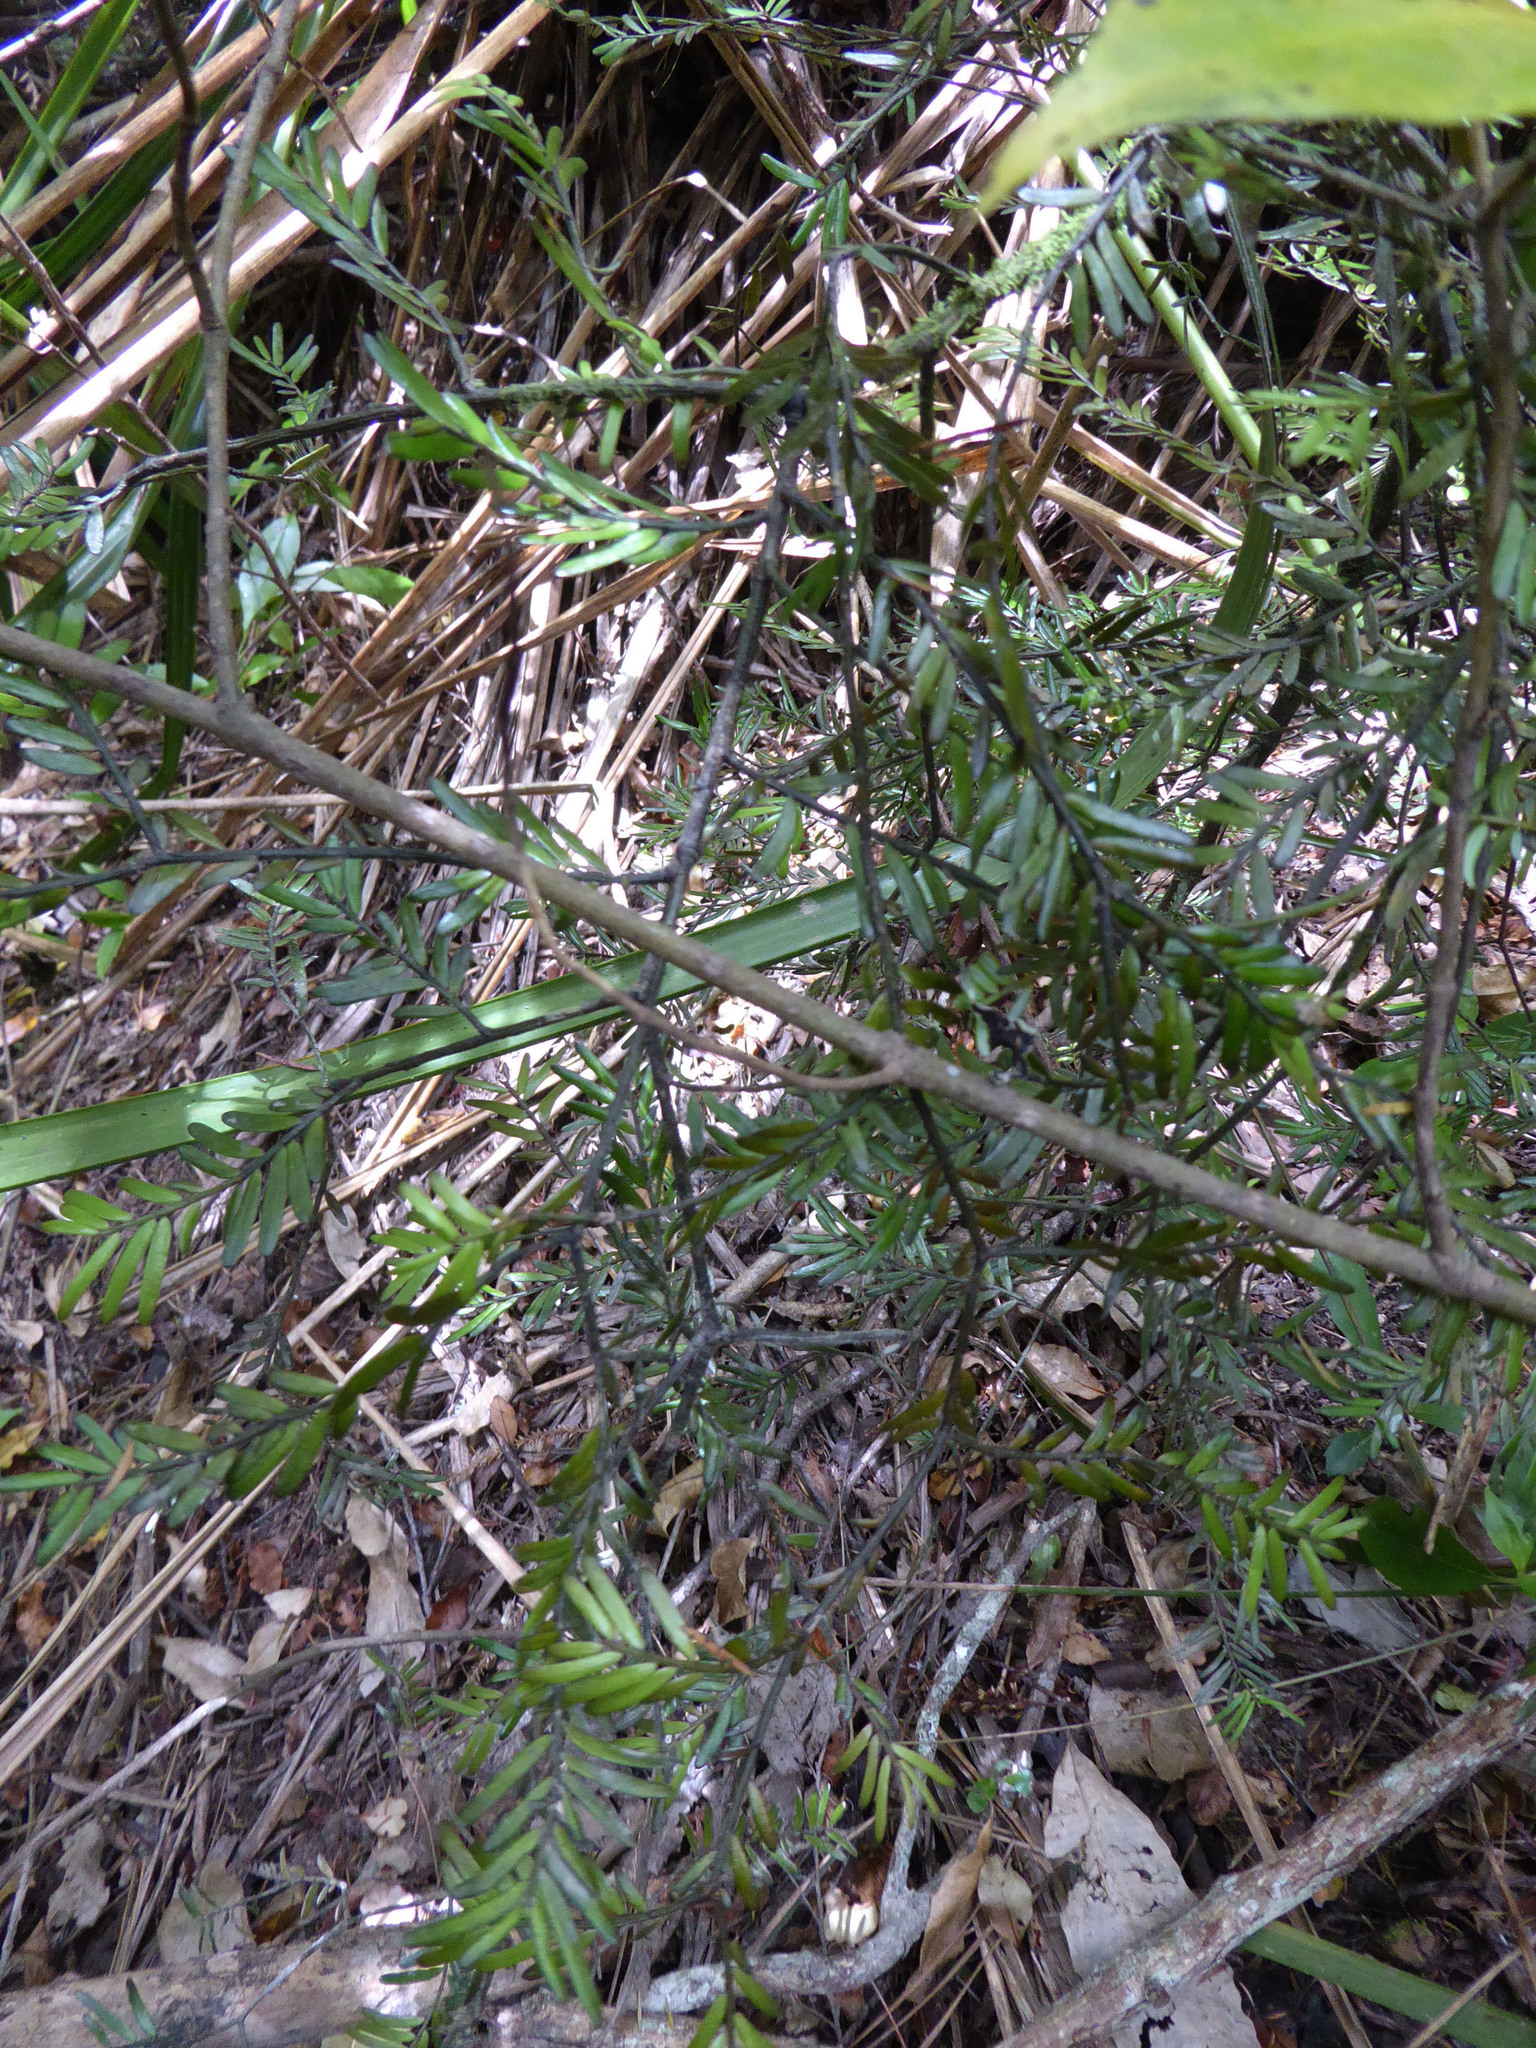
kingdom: Plantae
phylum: Tracheophyta
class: Pinopsida
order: Pinales
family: Podocarpaceae
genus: Prumnopitys
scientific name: Prumnopitys taxifolia
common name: Matai
